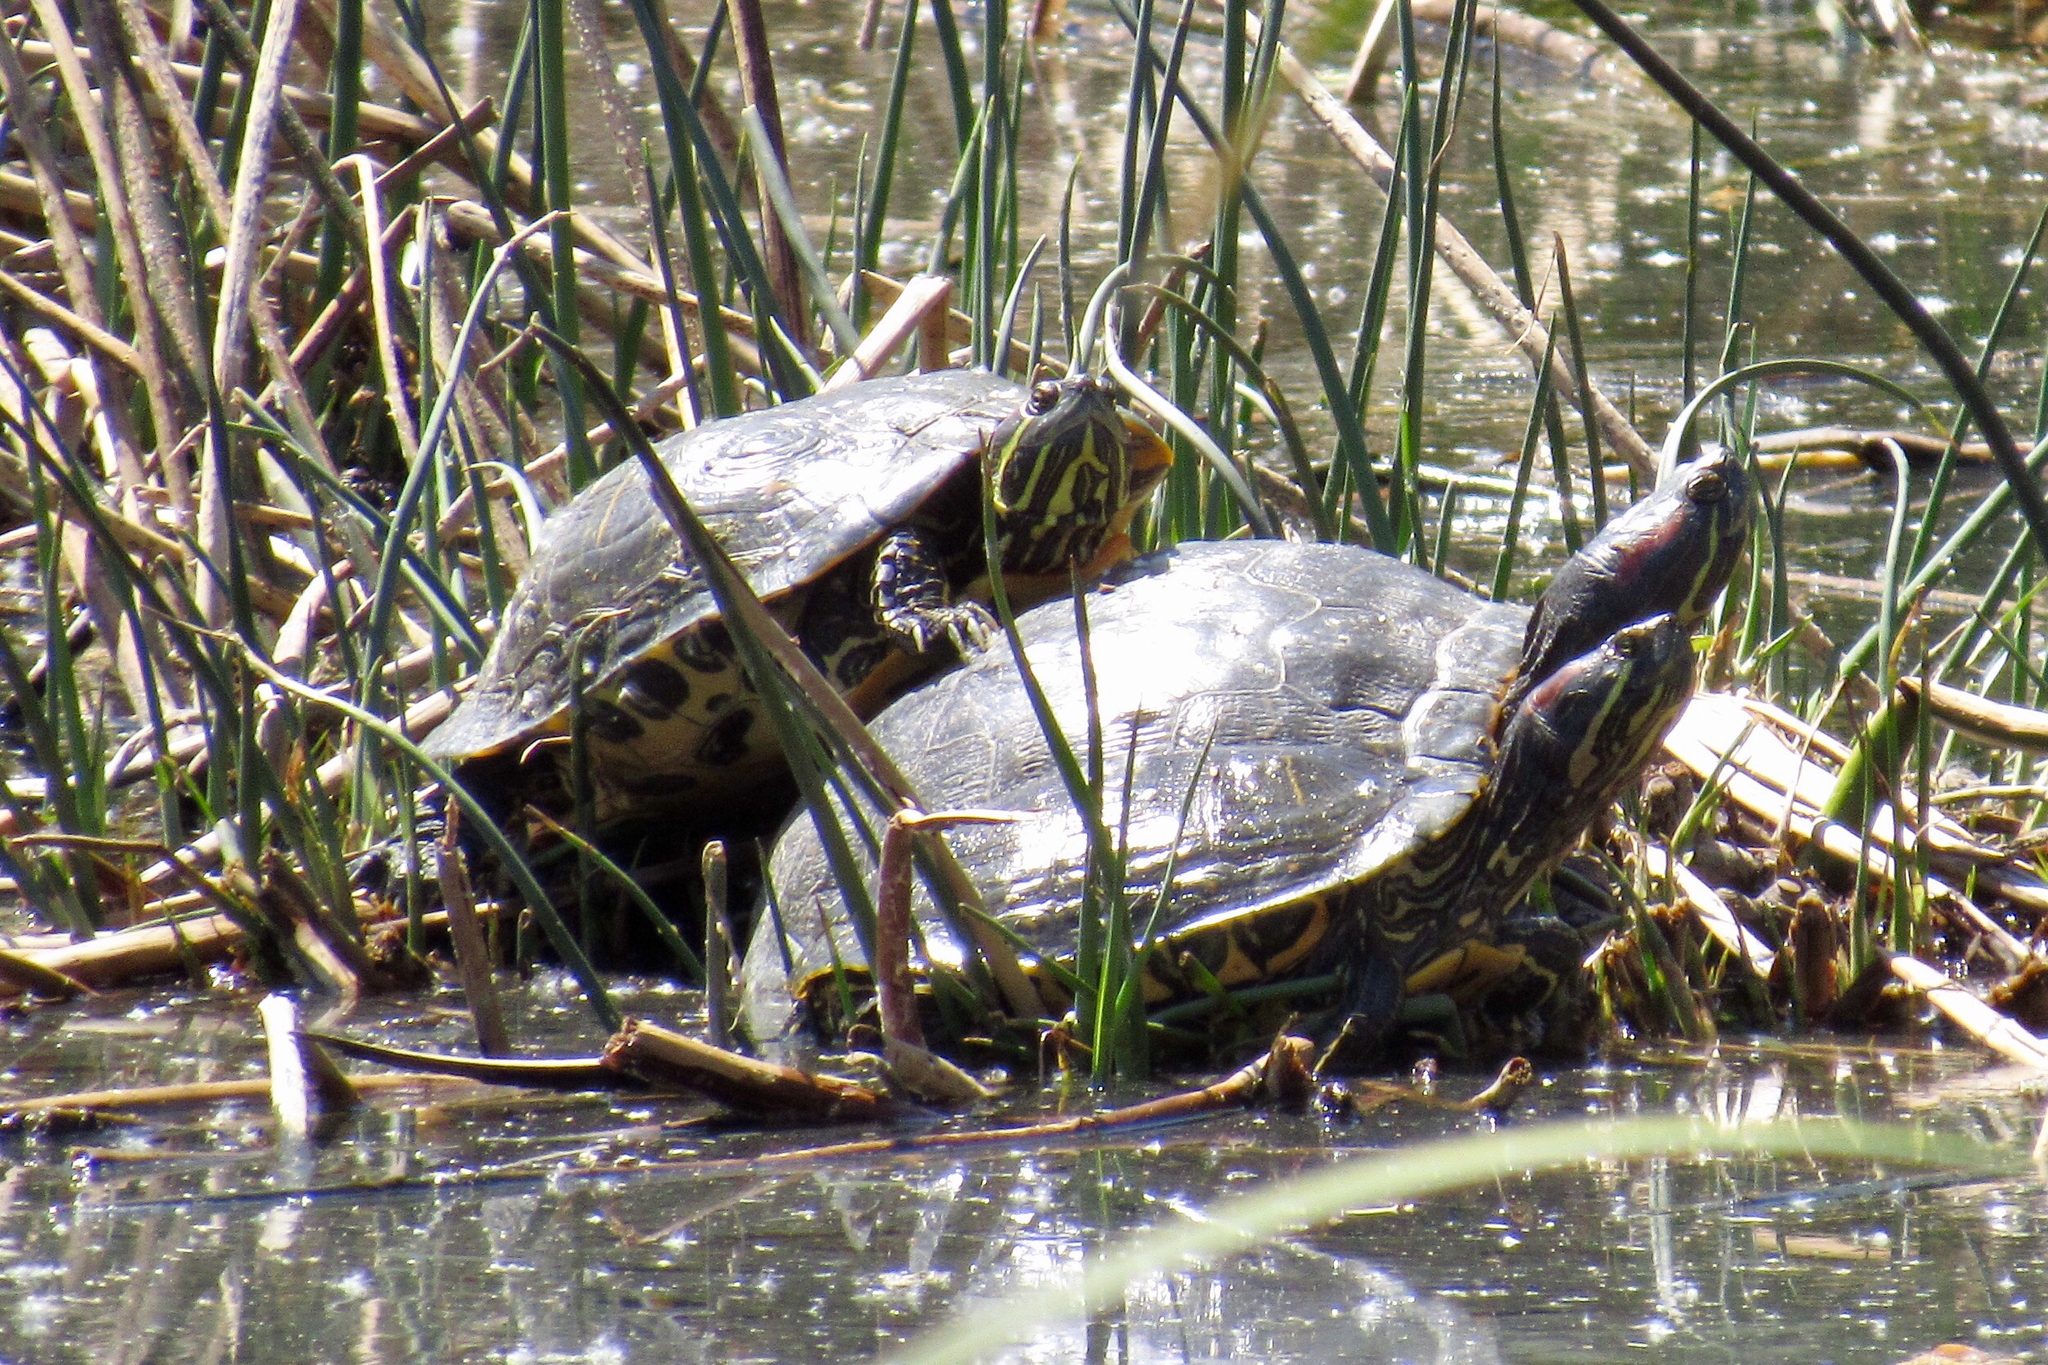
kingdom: Animalia
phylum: Chordata
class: Testudines
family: Emydidae
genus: Trachemys
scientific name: Trachemys scripta
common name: Slider
